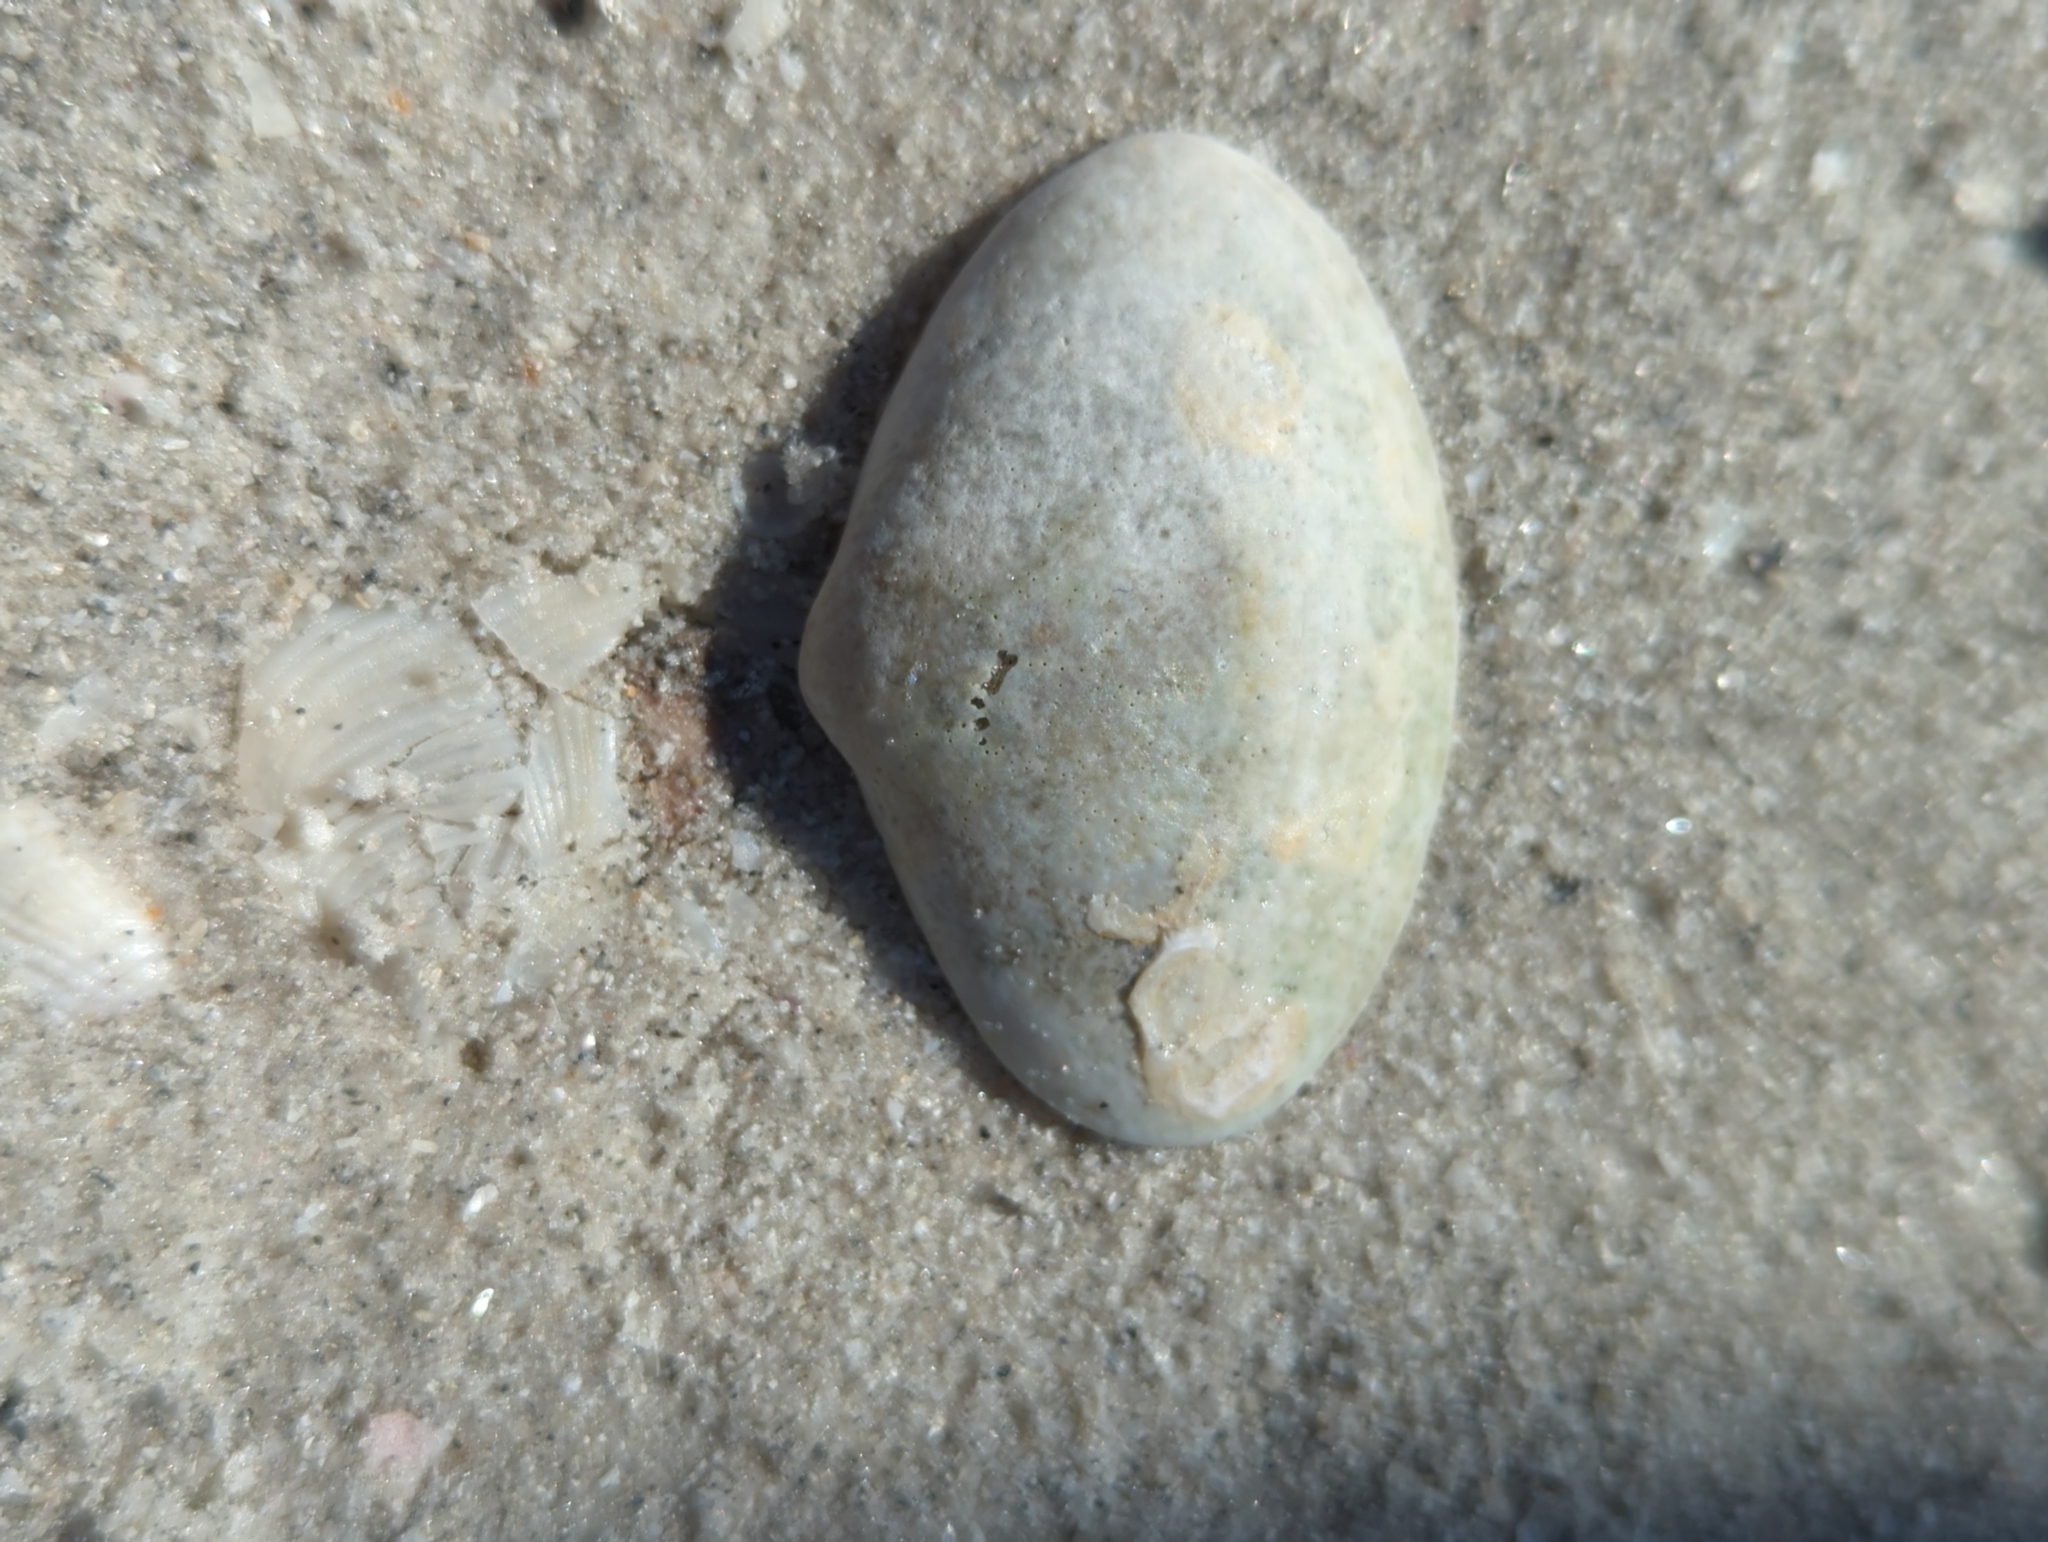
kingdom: Animalia
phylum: Mollusca
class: Bivalvia
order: Venerida
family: Mactridae
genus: Spisula
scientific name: Spisula raveneli
